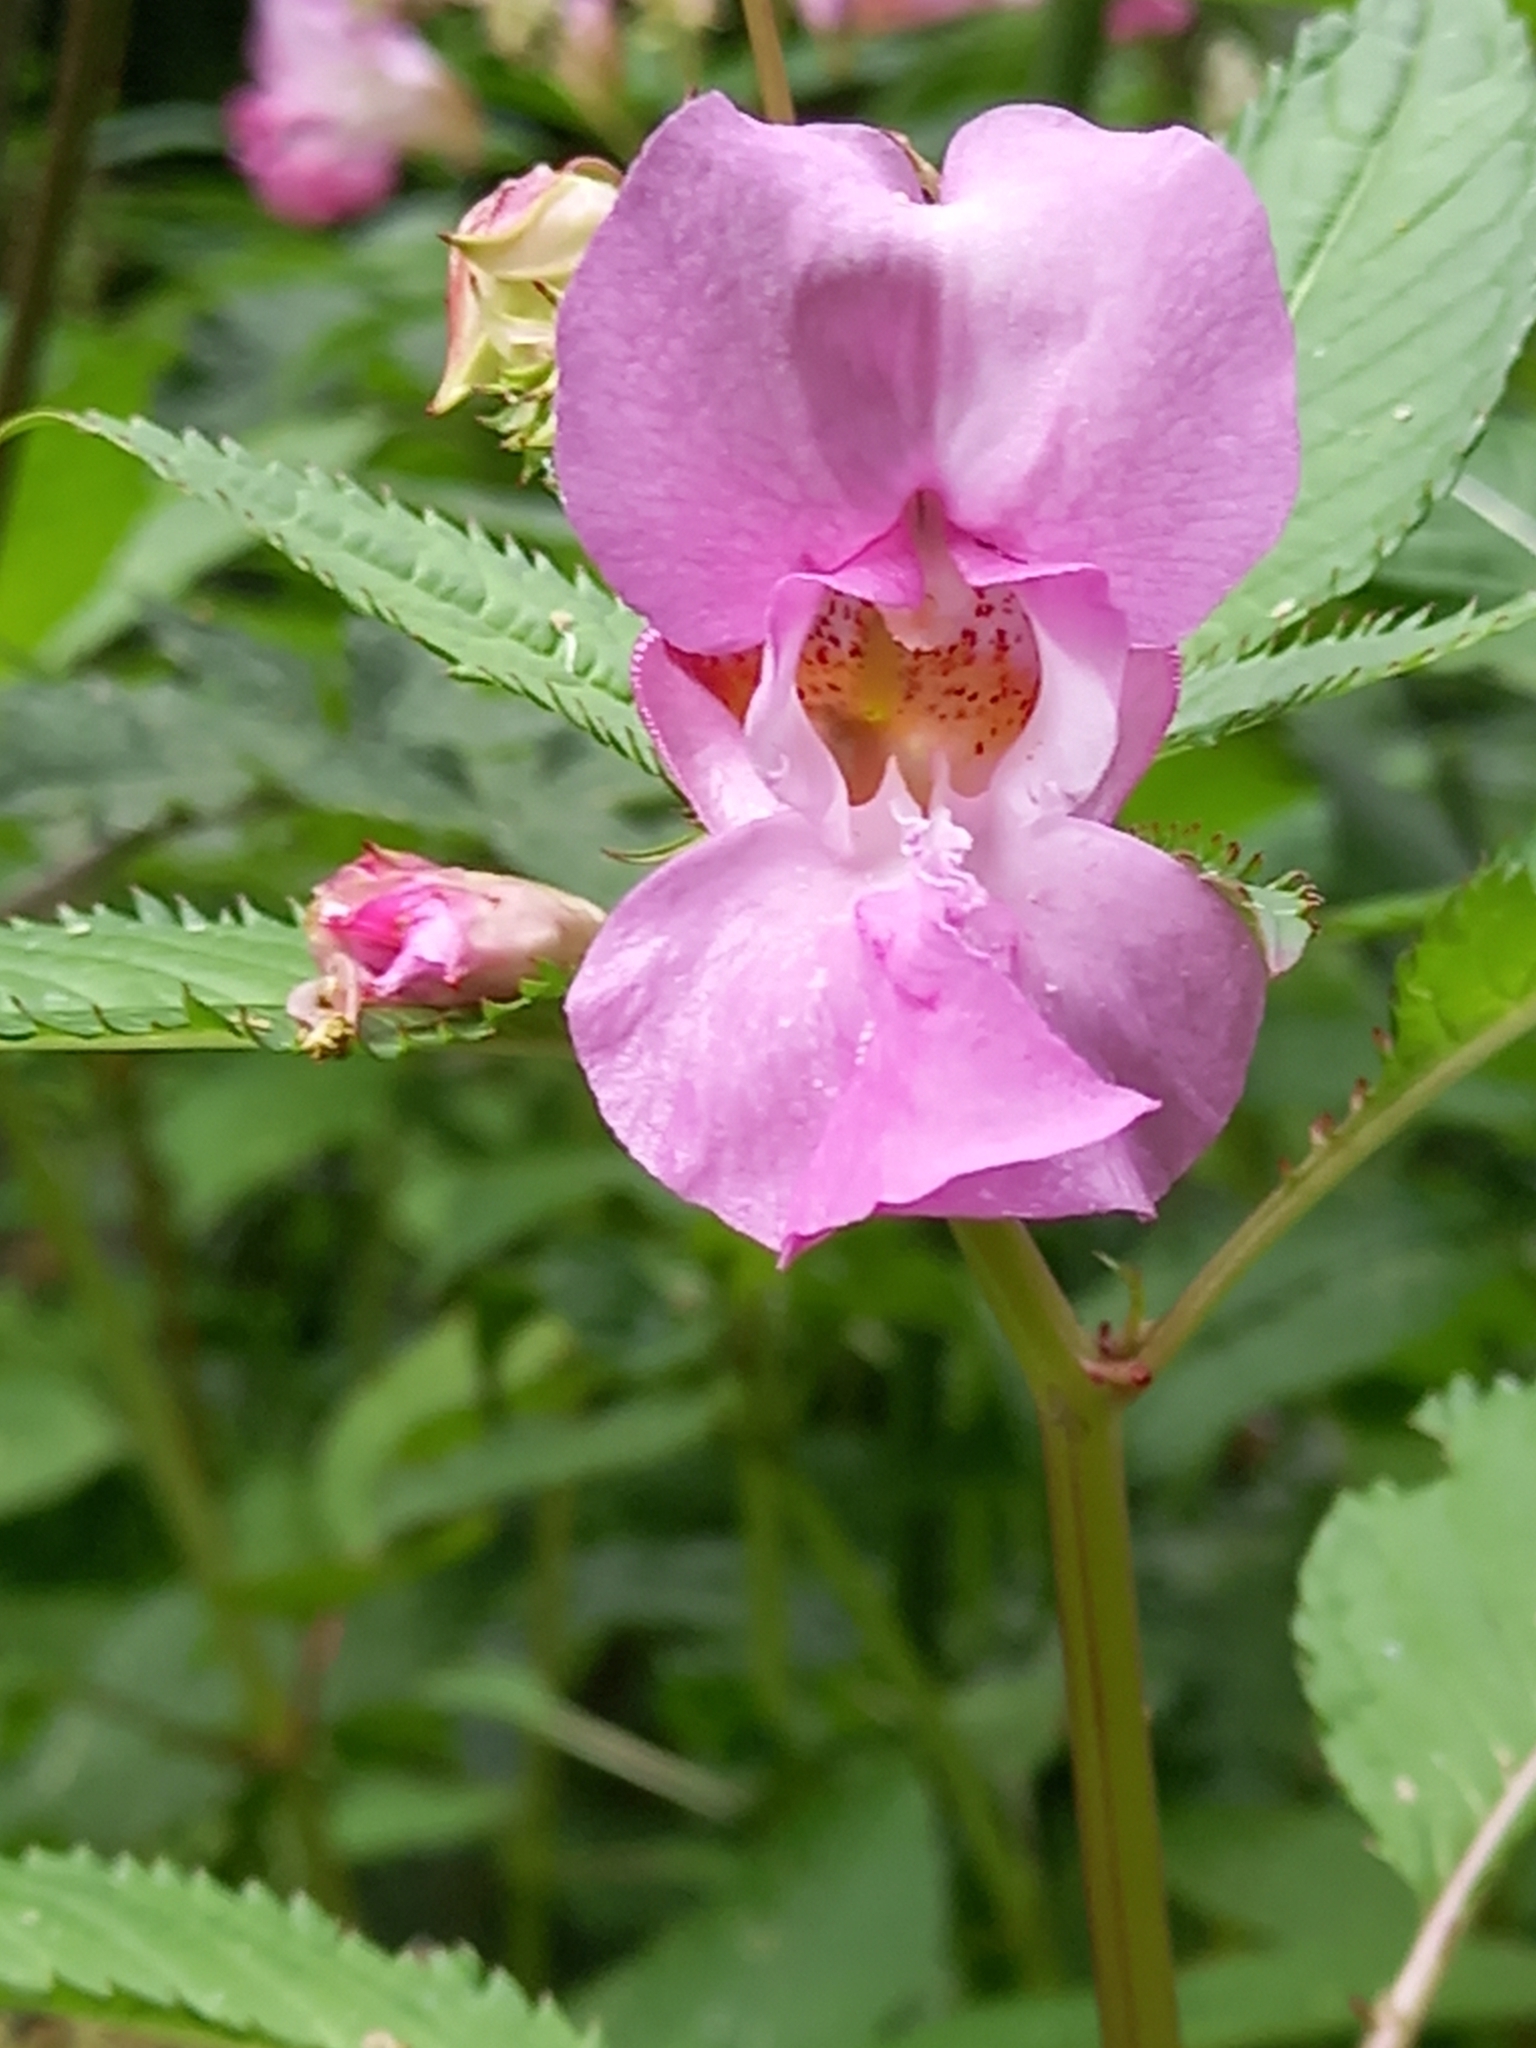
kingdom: Plantae
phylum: Tracheophyta
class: Magnoliopsida
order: Ericales
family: Balsaminaceae
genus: Impatiens
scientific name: Impatiens glandulifera
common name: Himalayan balsam
